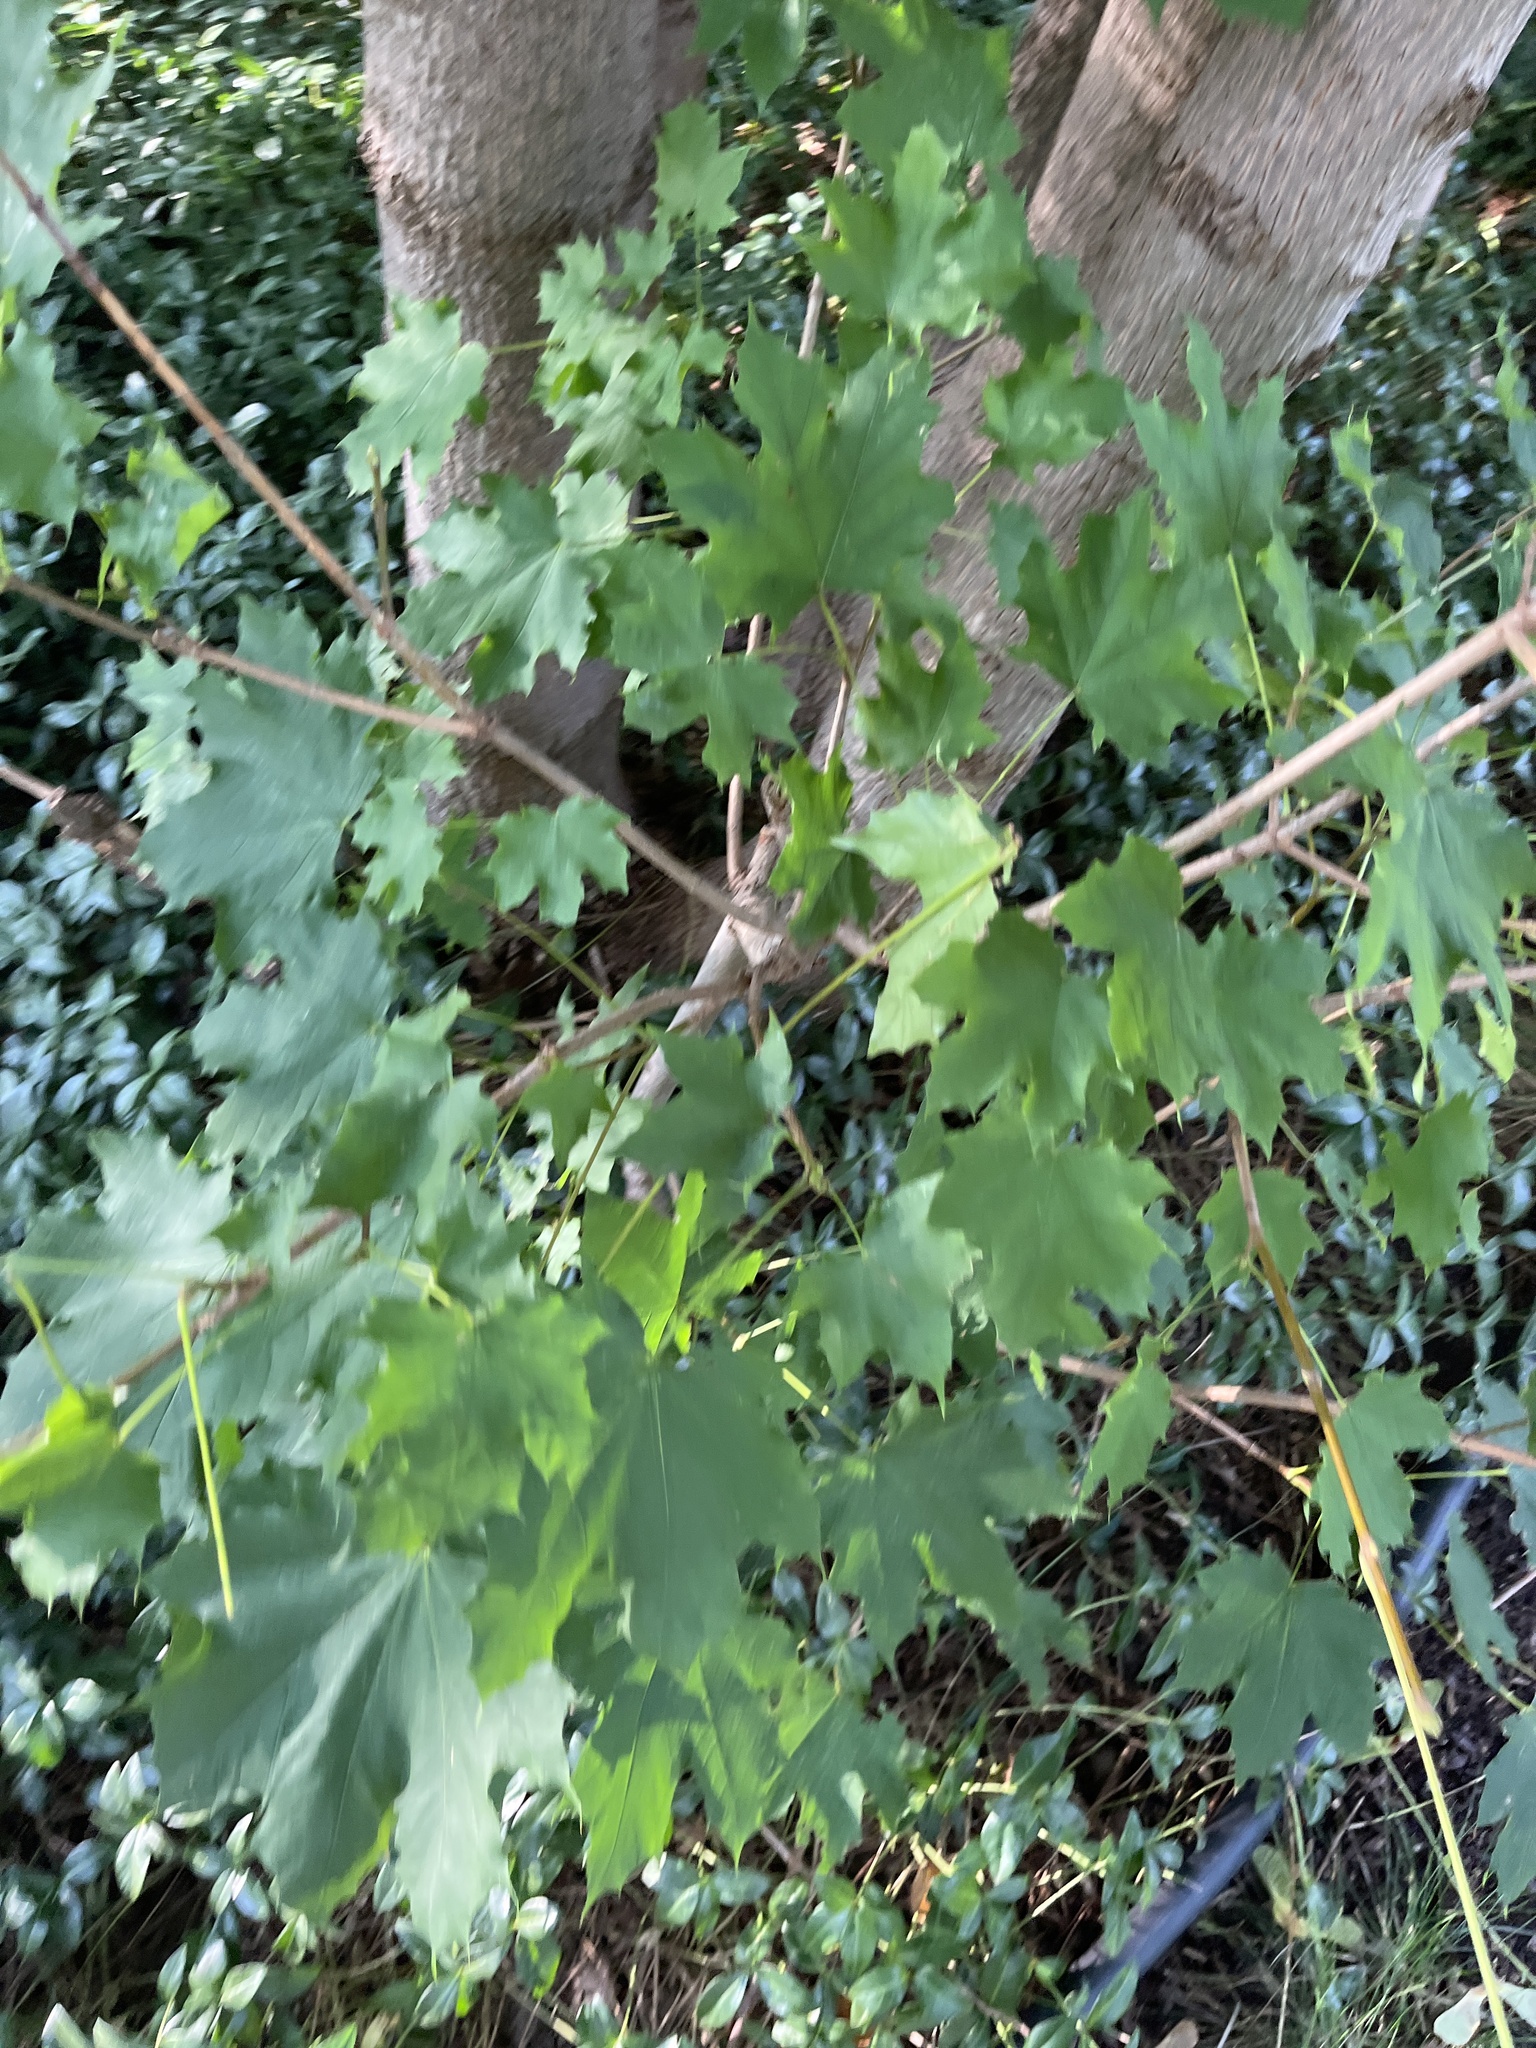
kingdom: Plantae
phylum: Tracheophyta
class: Magnoliopsida
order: Sapindales
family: Sapindaceae
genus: Acer
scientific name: Acer platanoides
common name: Norway maple
